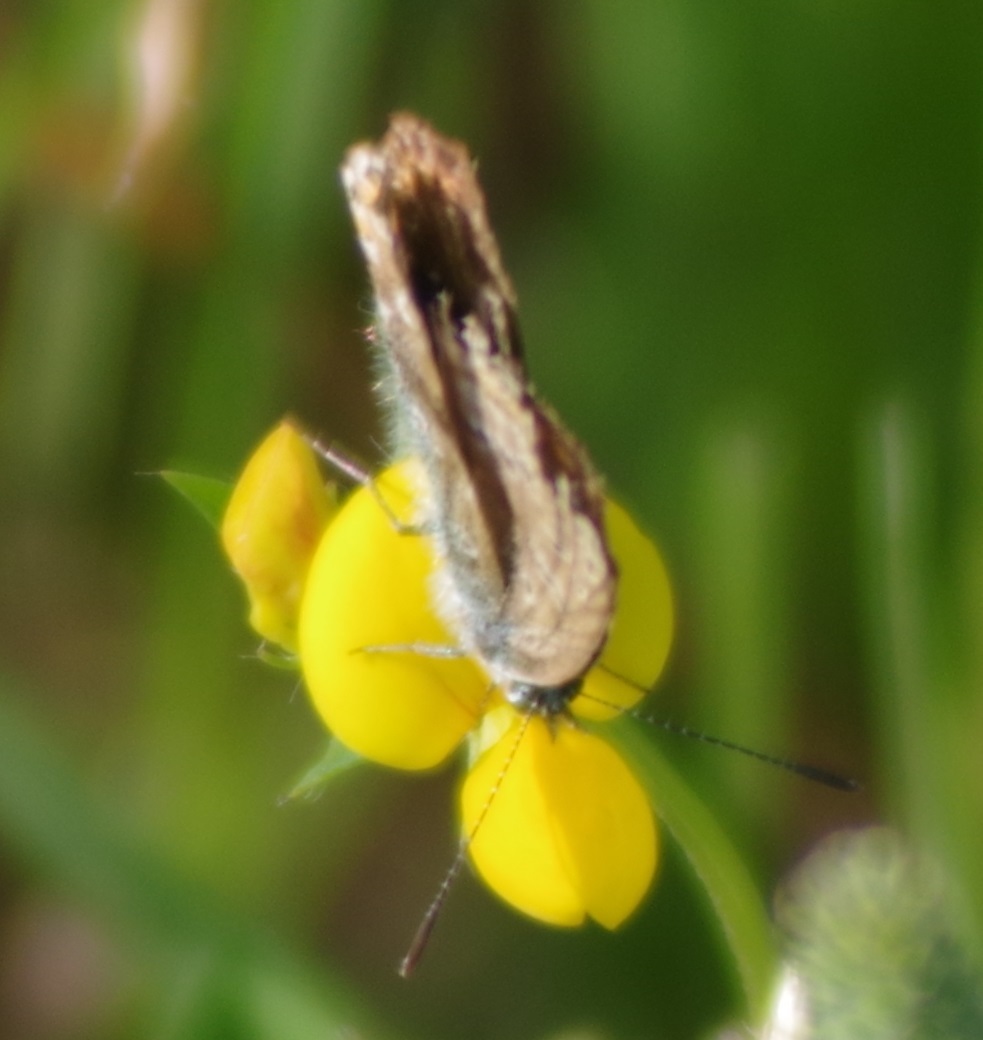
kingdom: Animalia
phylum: Arthropoda
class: Insecta
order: Lepidoptera
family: Lycaenidae
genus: Polyommatus
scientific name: Polyommatus icarus
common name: Common blue
